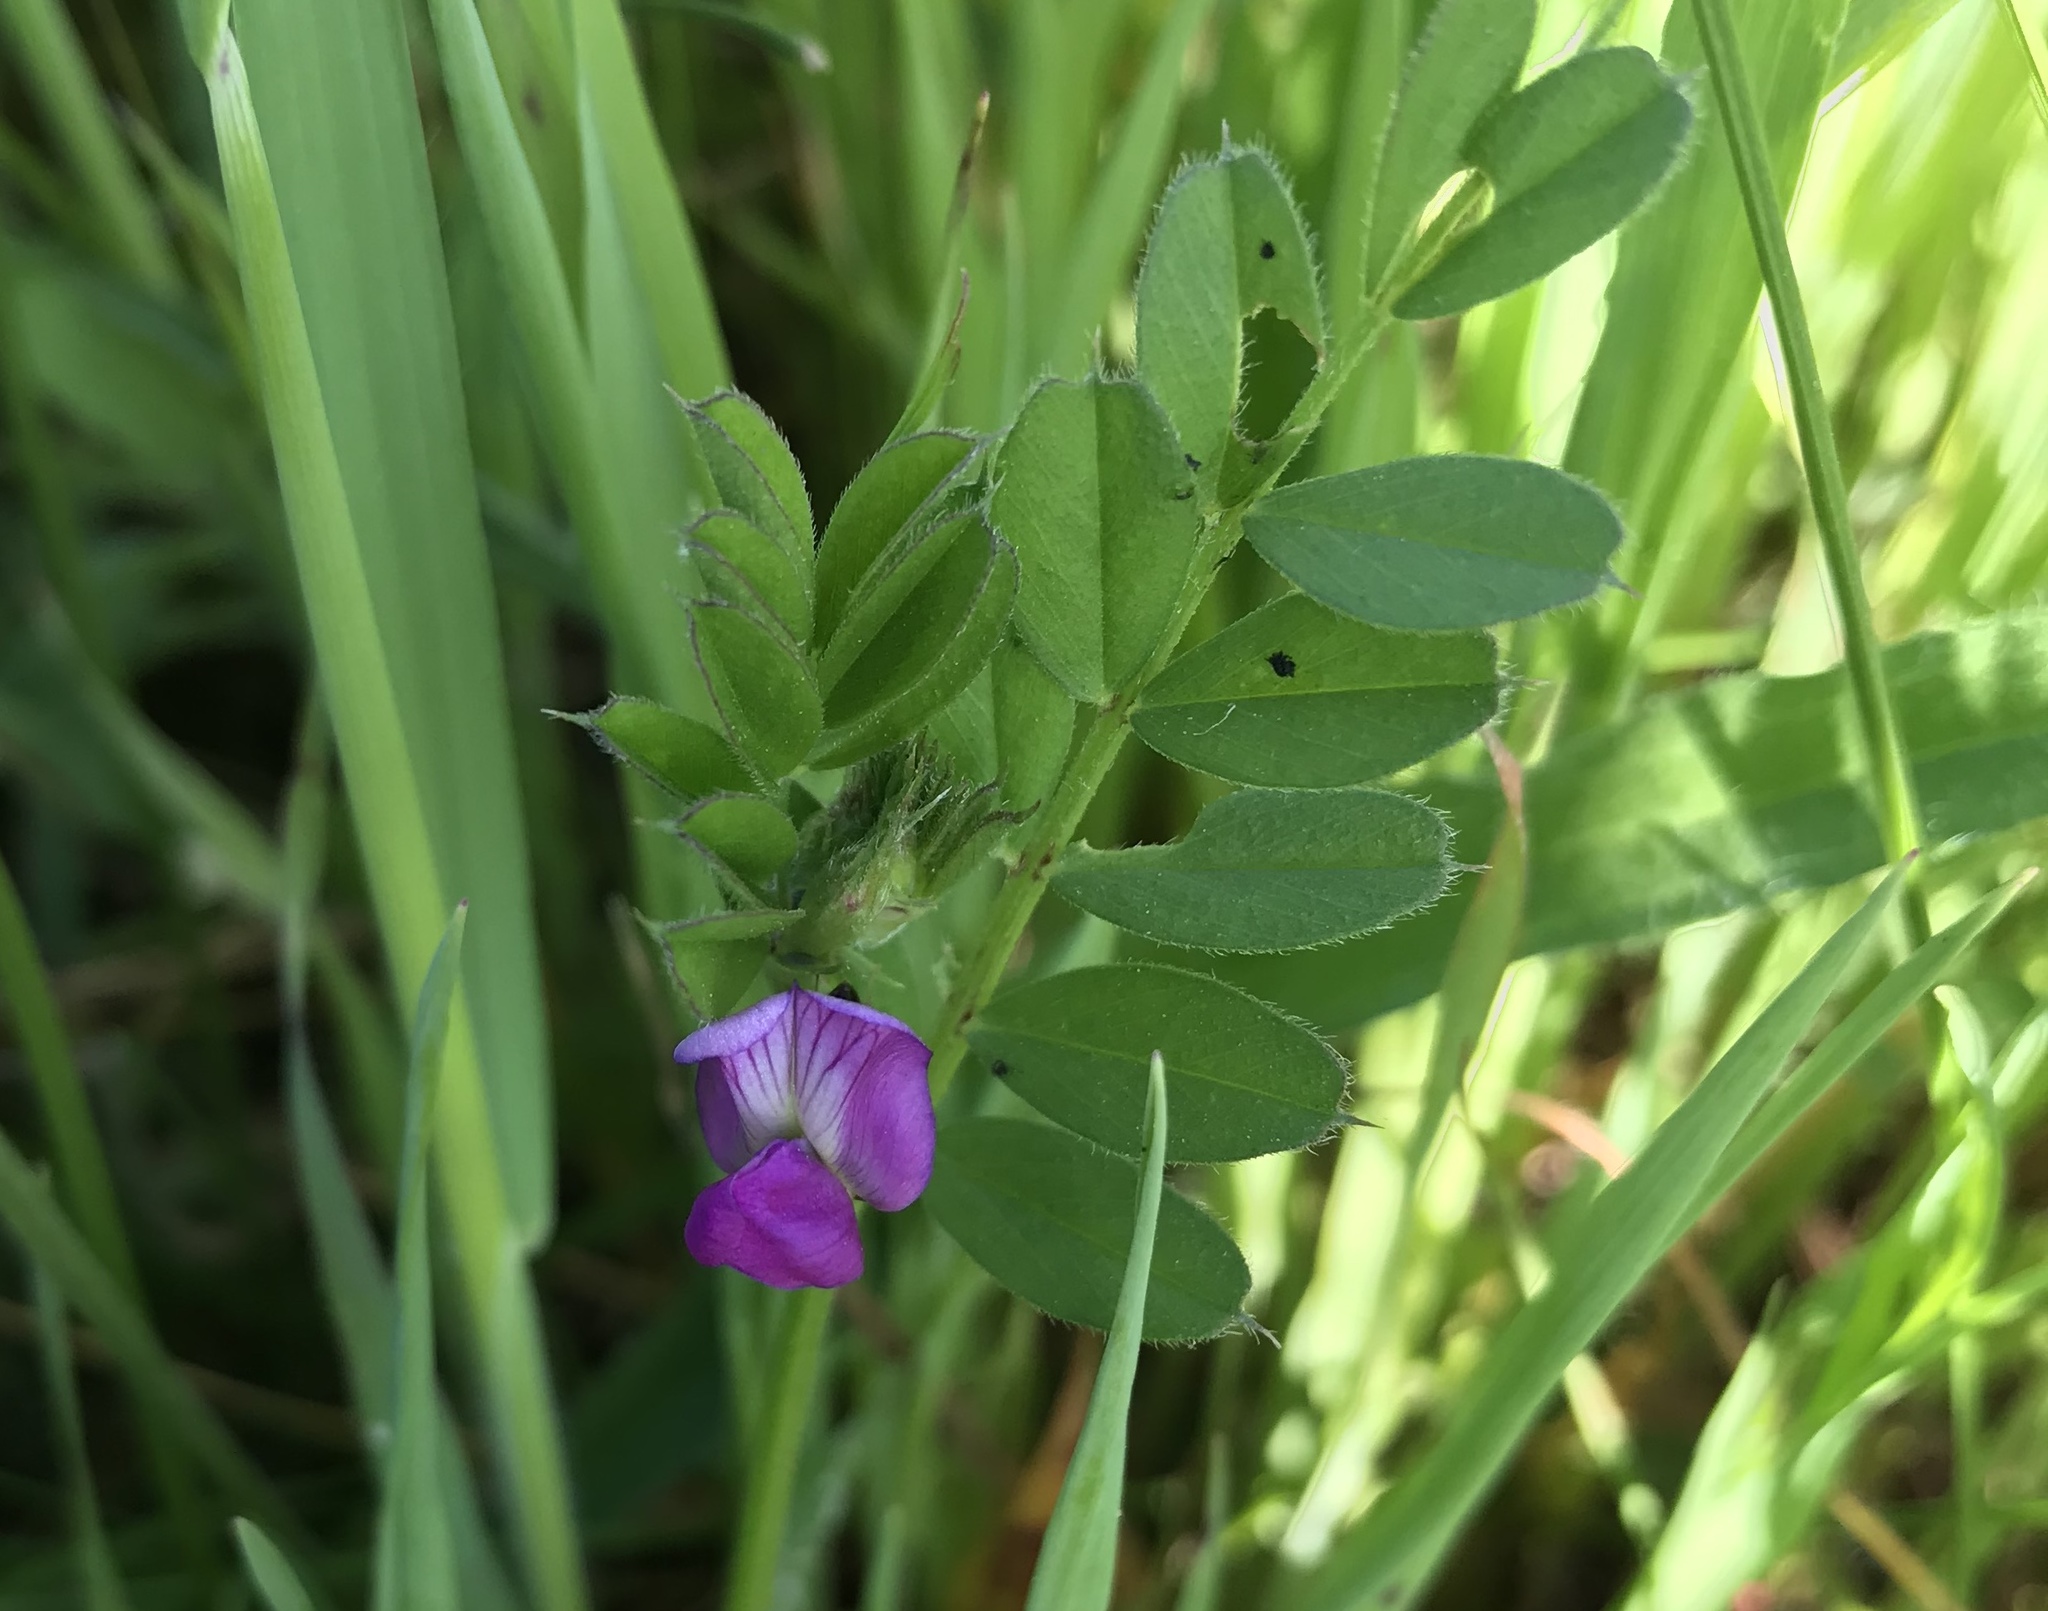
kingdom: Plantae
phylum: Tracheophyta
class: Magnoliopsida
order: Fabales
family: Fabaceae
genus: Vicia
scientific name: Vicia sativa
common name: Garden vetch
